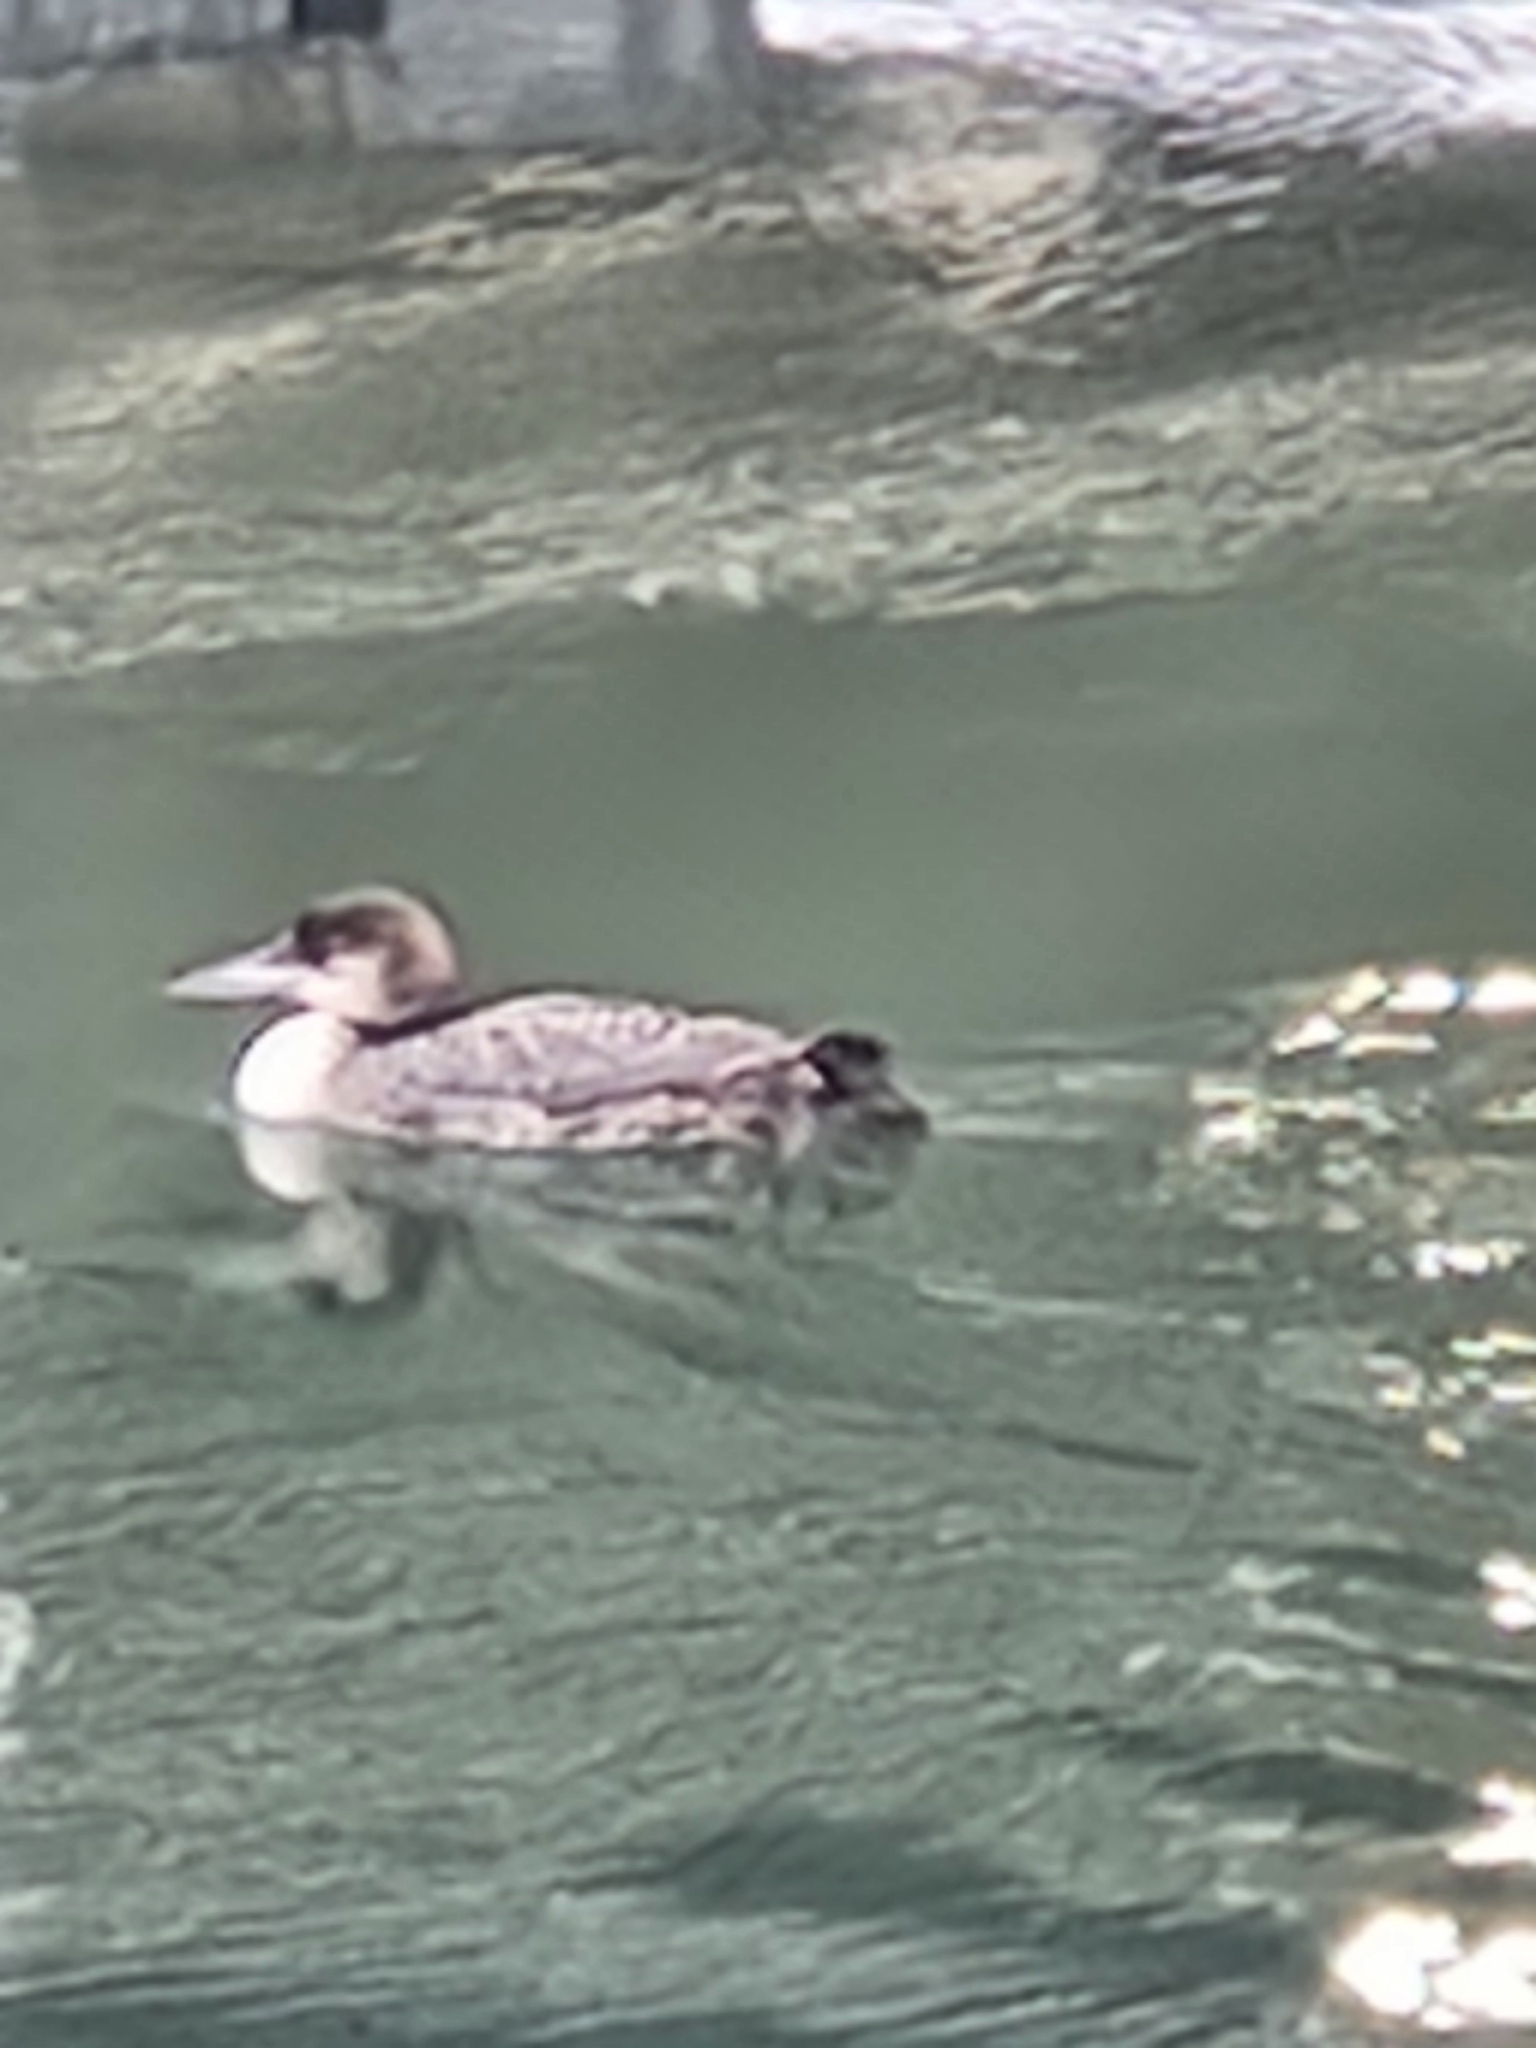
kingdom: Animalia
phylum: Chordata
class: Aves
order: Gaviiformes
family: Gaviidae
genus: Gavia
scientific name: Gavia immer
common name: Common loon
